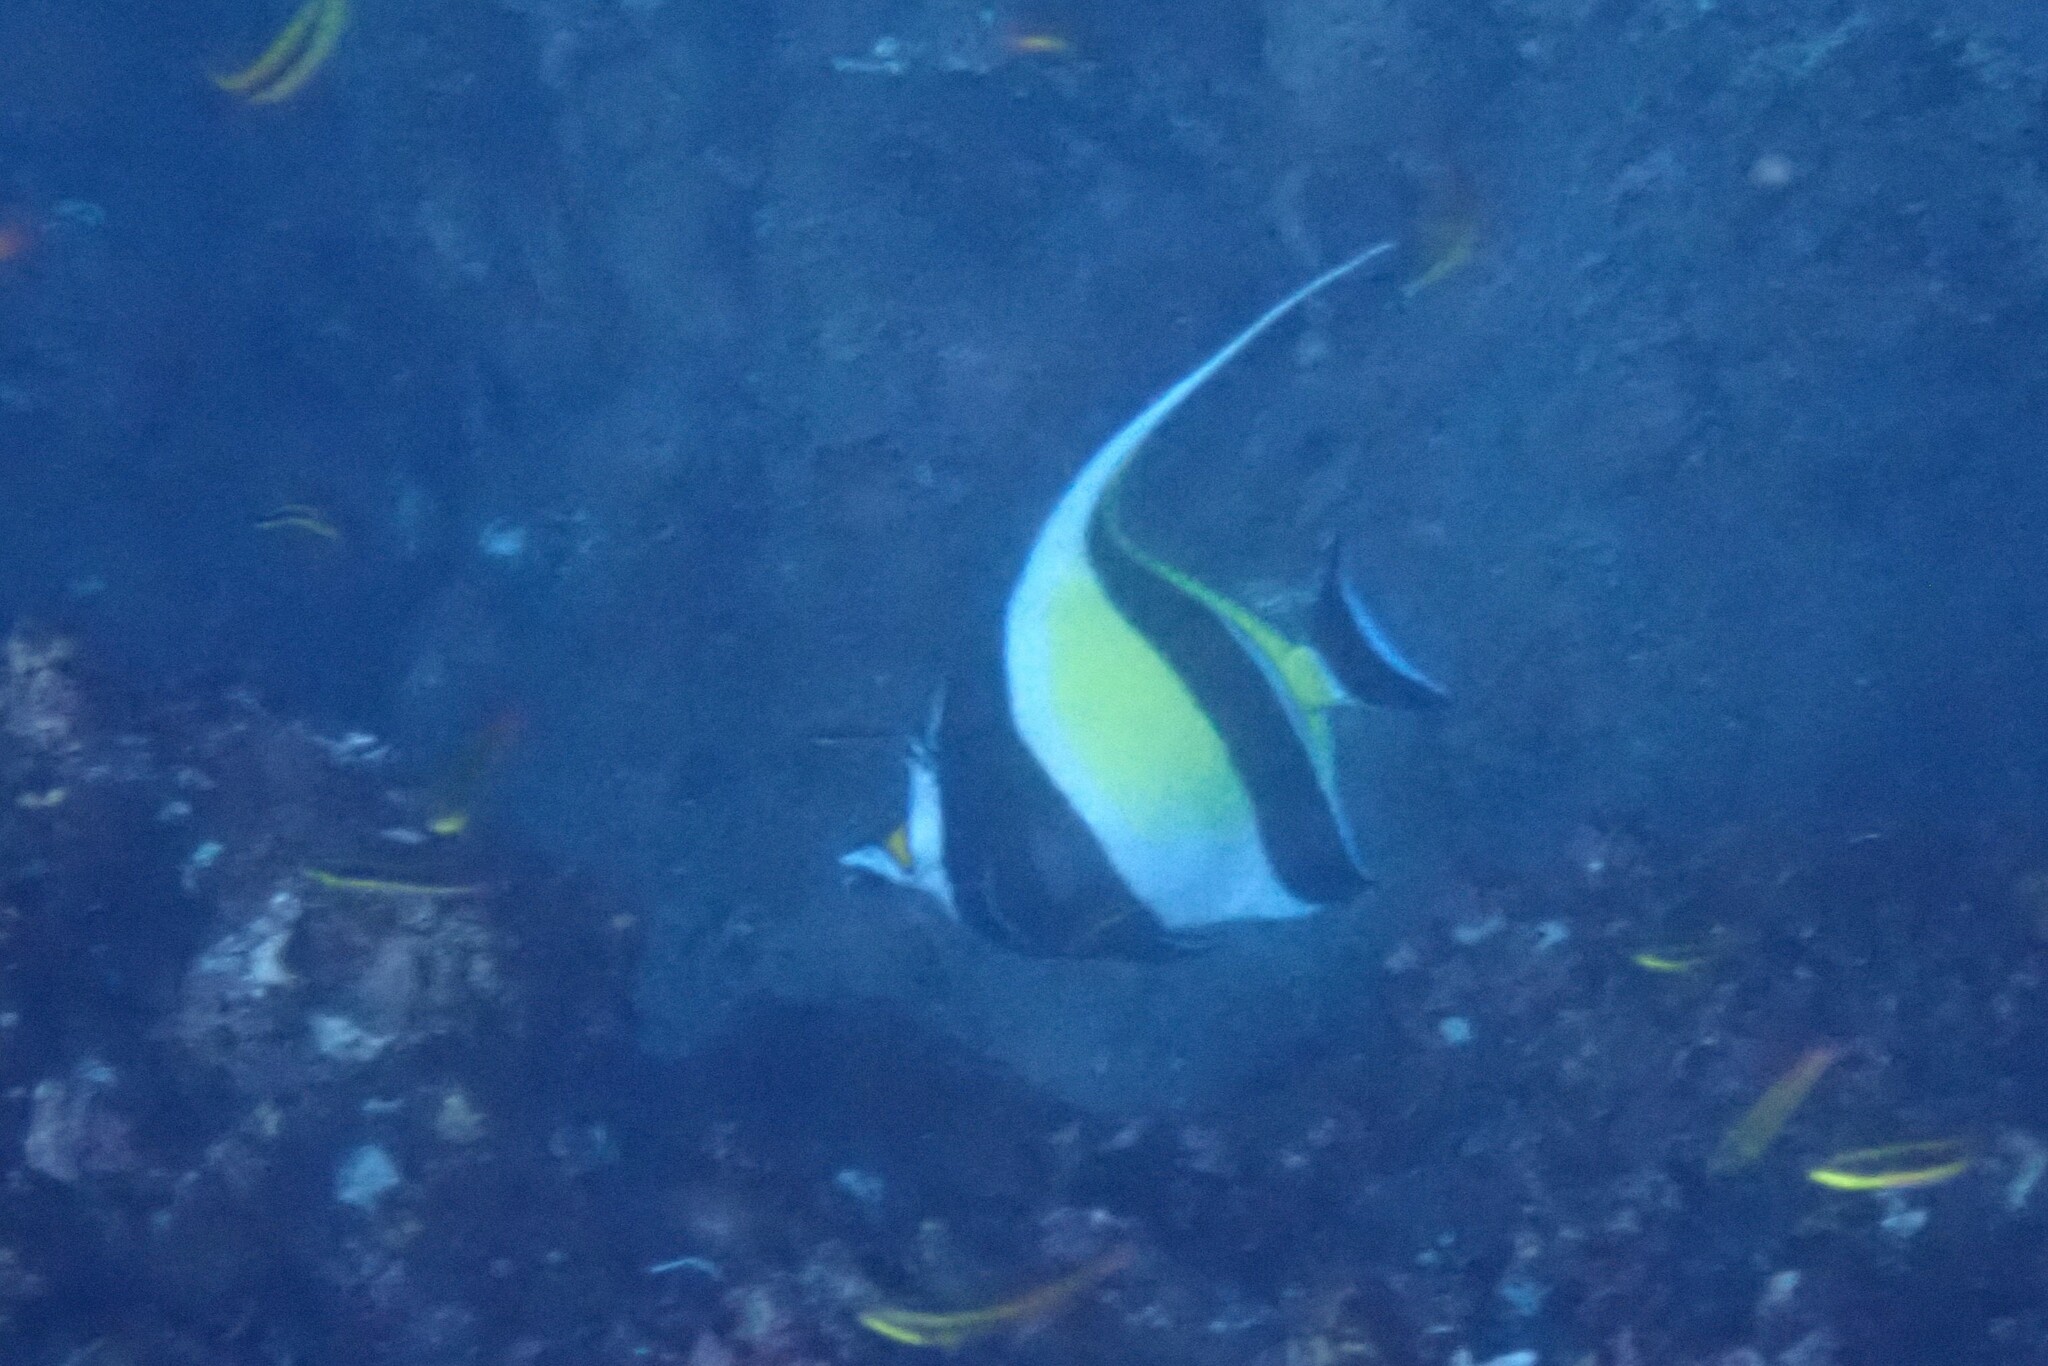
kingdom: Animalia
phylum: Chordata
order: Perciformes
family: Zanclidae
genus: Zanclus
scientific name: Zanclus cornutus
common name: Moorish idol
